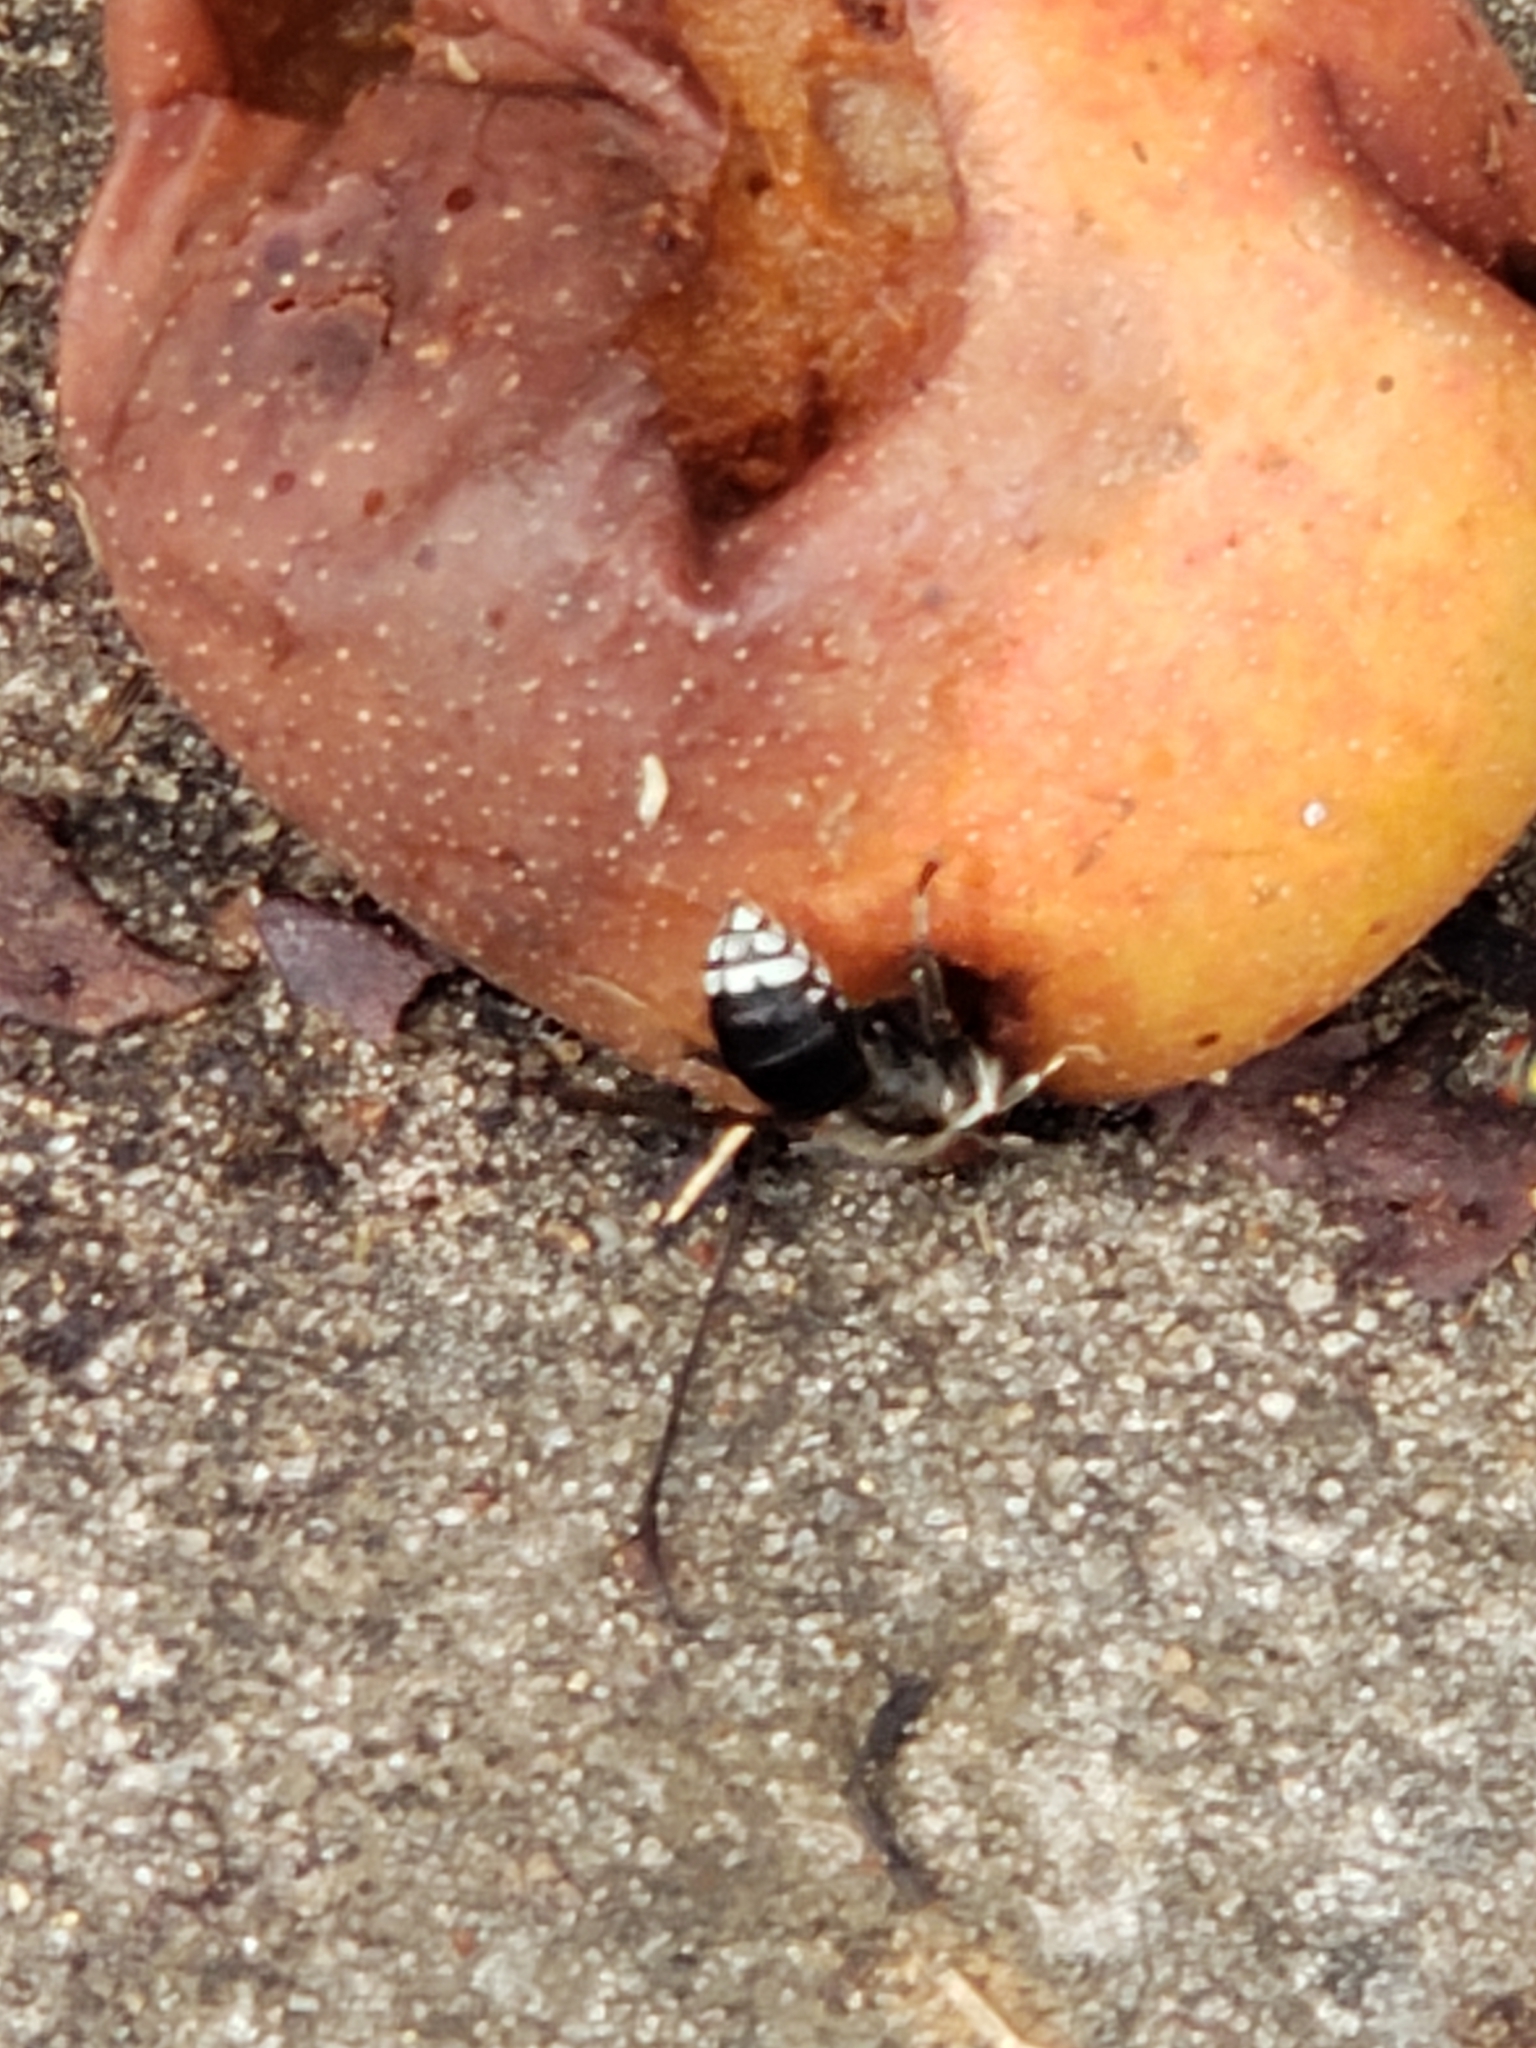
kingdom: Animalia
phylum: Arthropoda
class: Insecta
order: Hymenoptera
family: Vespidae
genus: Dolichovespula
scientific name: Dolichovespula maculata
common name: Bald-faced hornet
